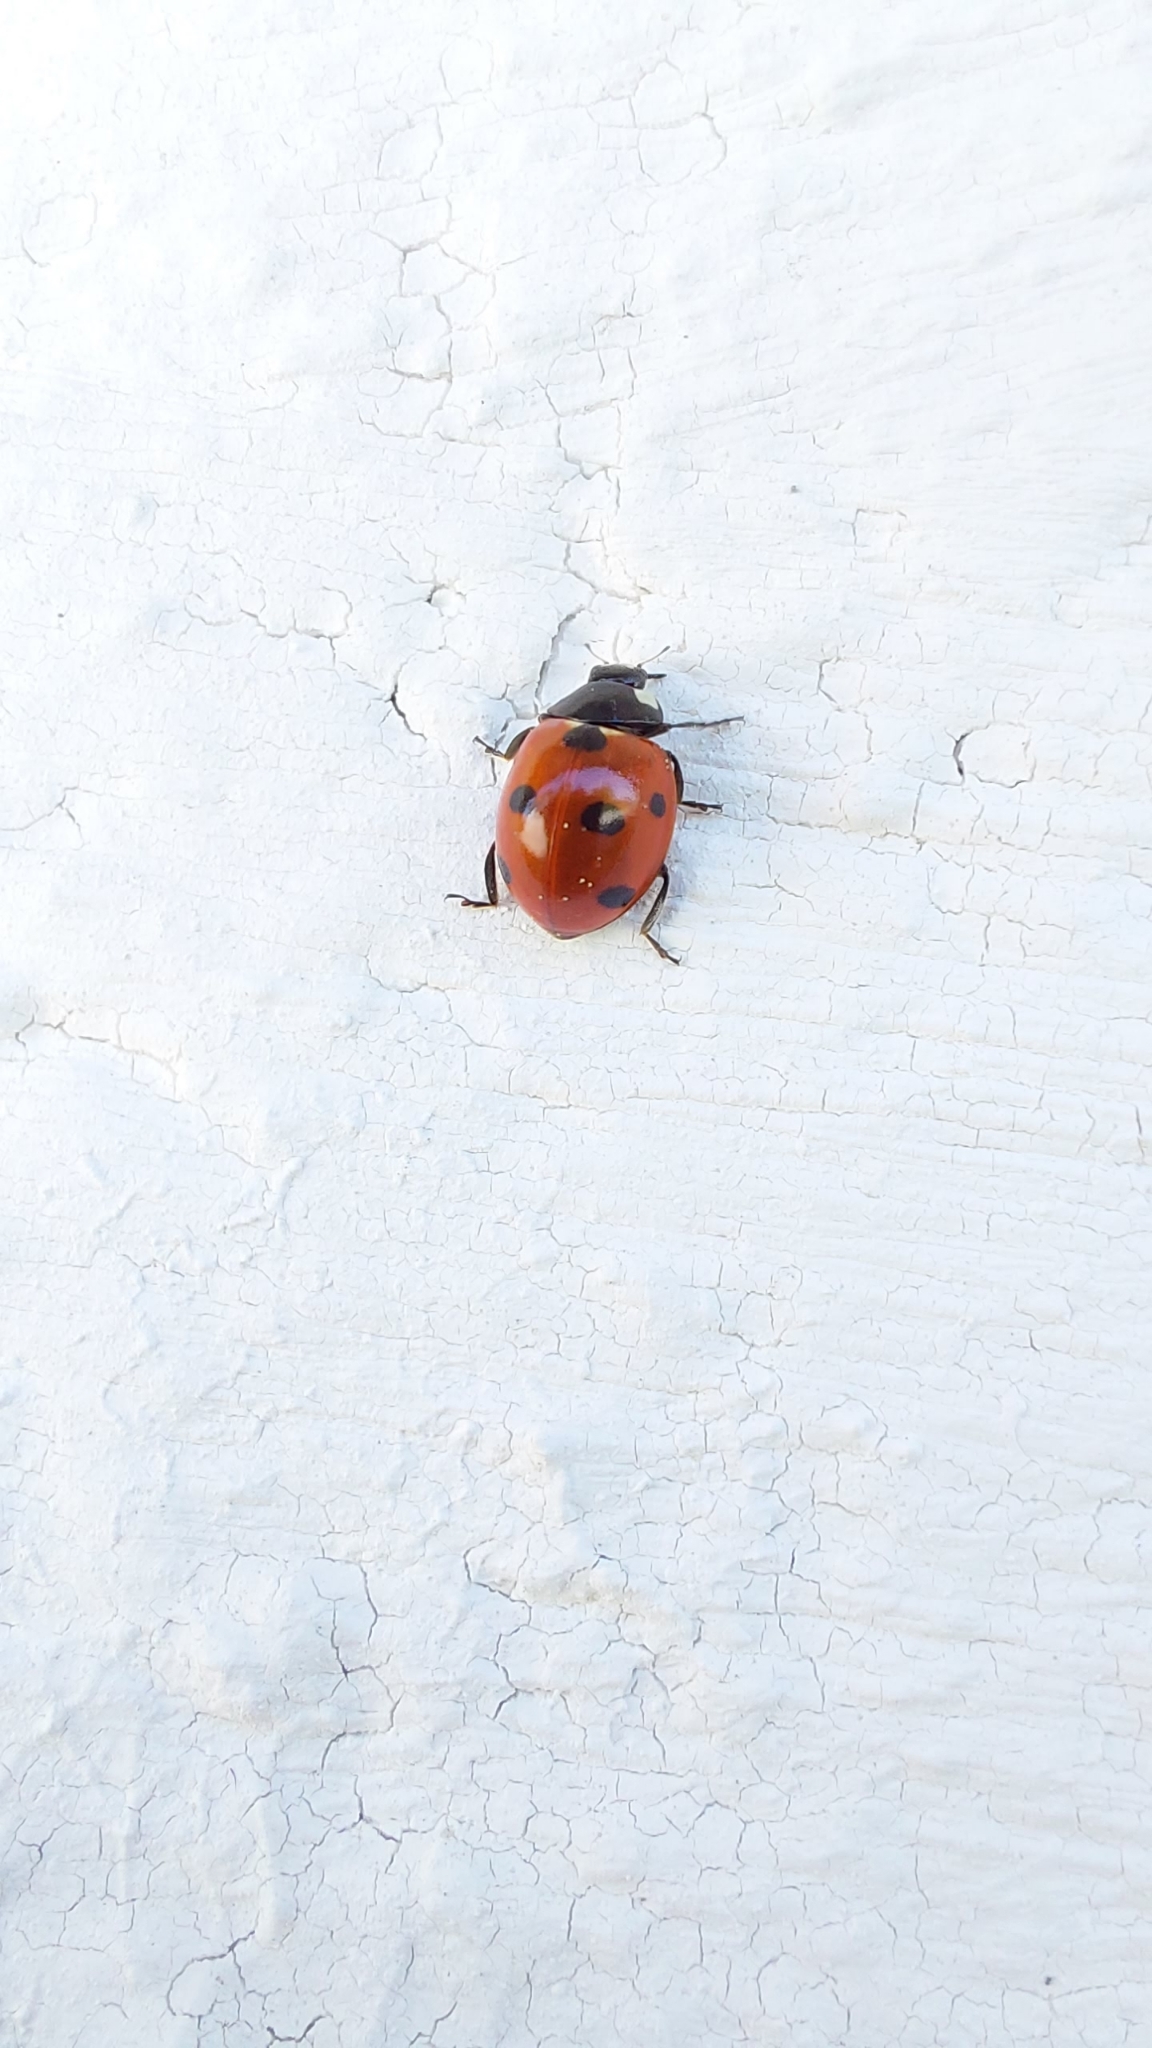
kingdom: Animalia
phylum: Arthropoda
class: Insecta
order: Coleoptera
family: Coccinellidae
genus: Coccinella
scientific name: Coccinella septempunctata
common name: Sevenspotted lady beetle
